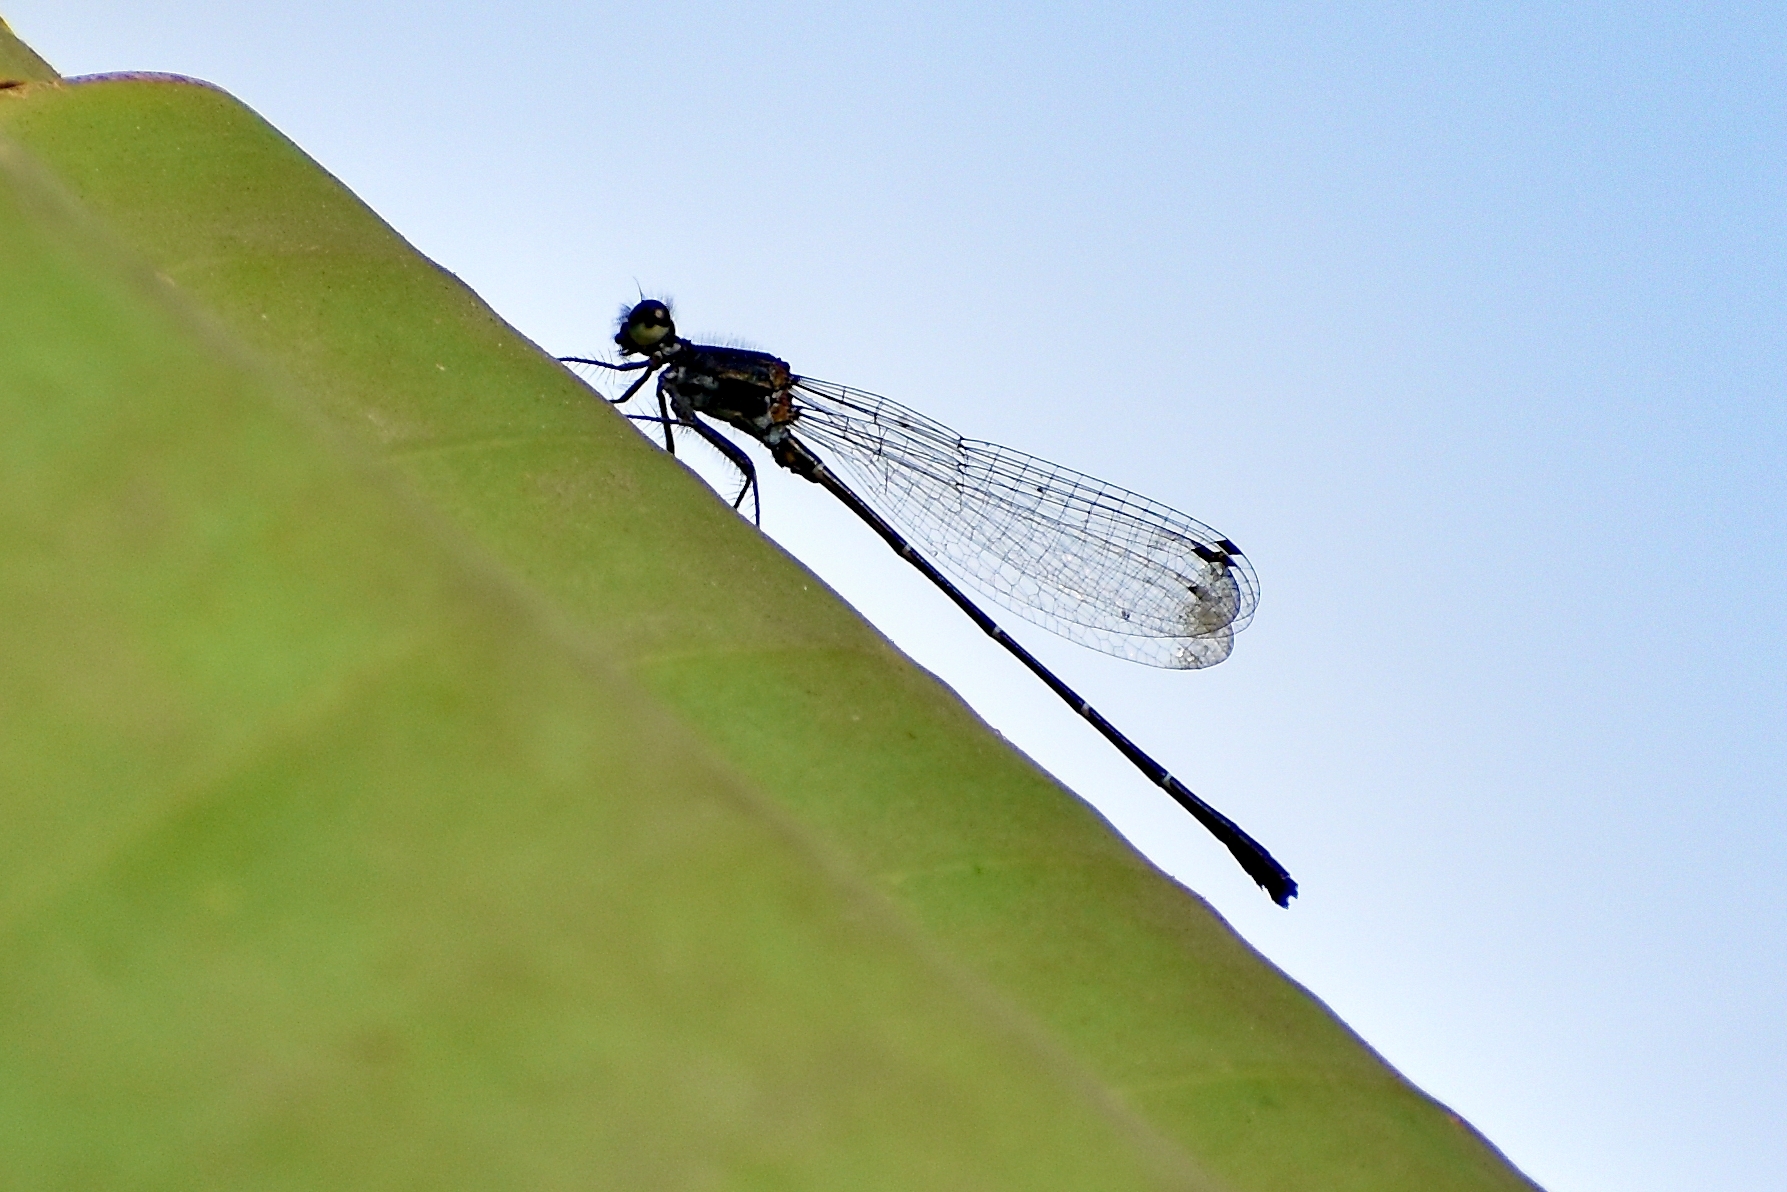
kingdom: Animalia
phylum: Arthropoda
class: Insecta
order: Odonata
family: Platycnemididae
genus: Onychargia
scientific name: Onychargia atrocyana
